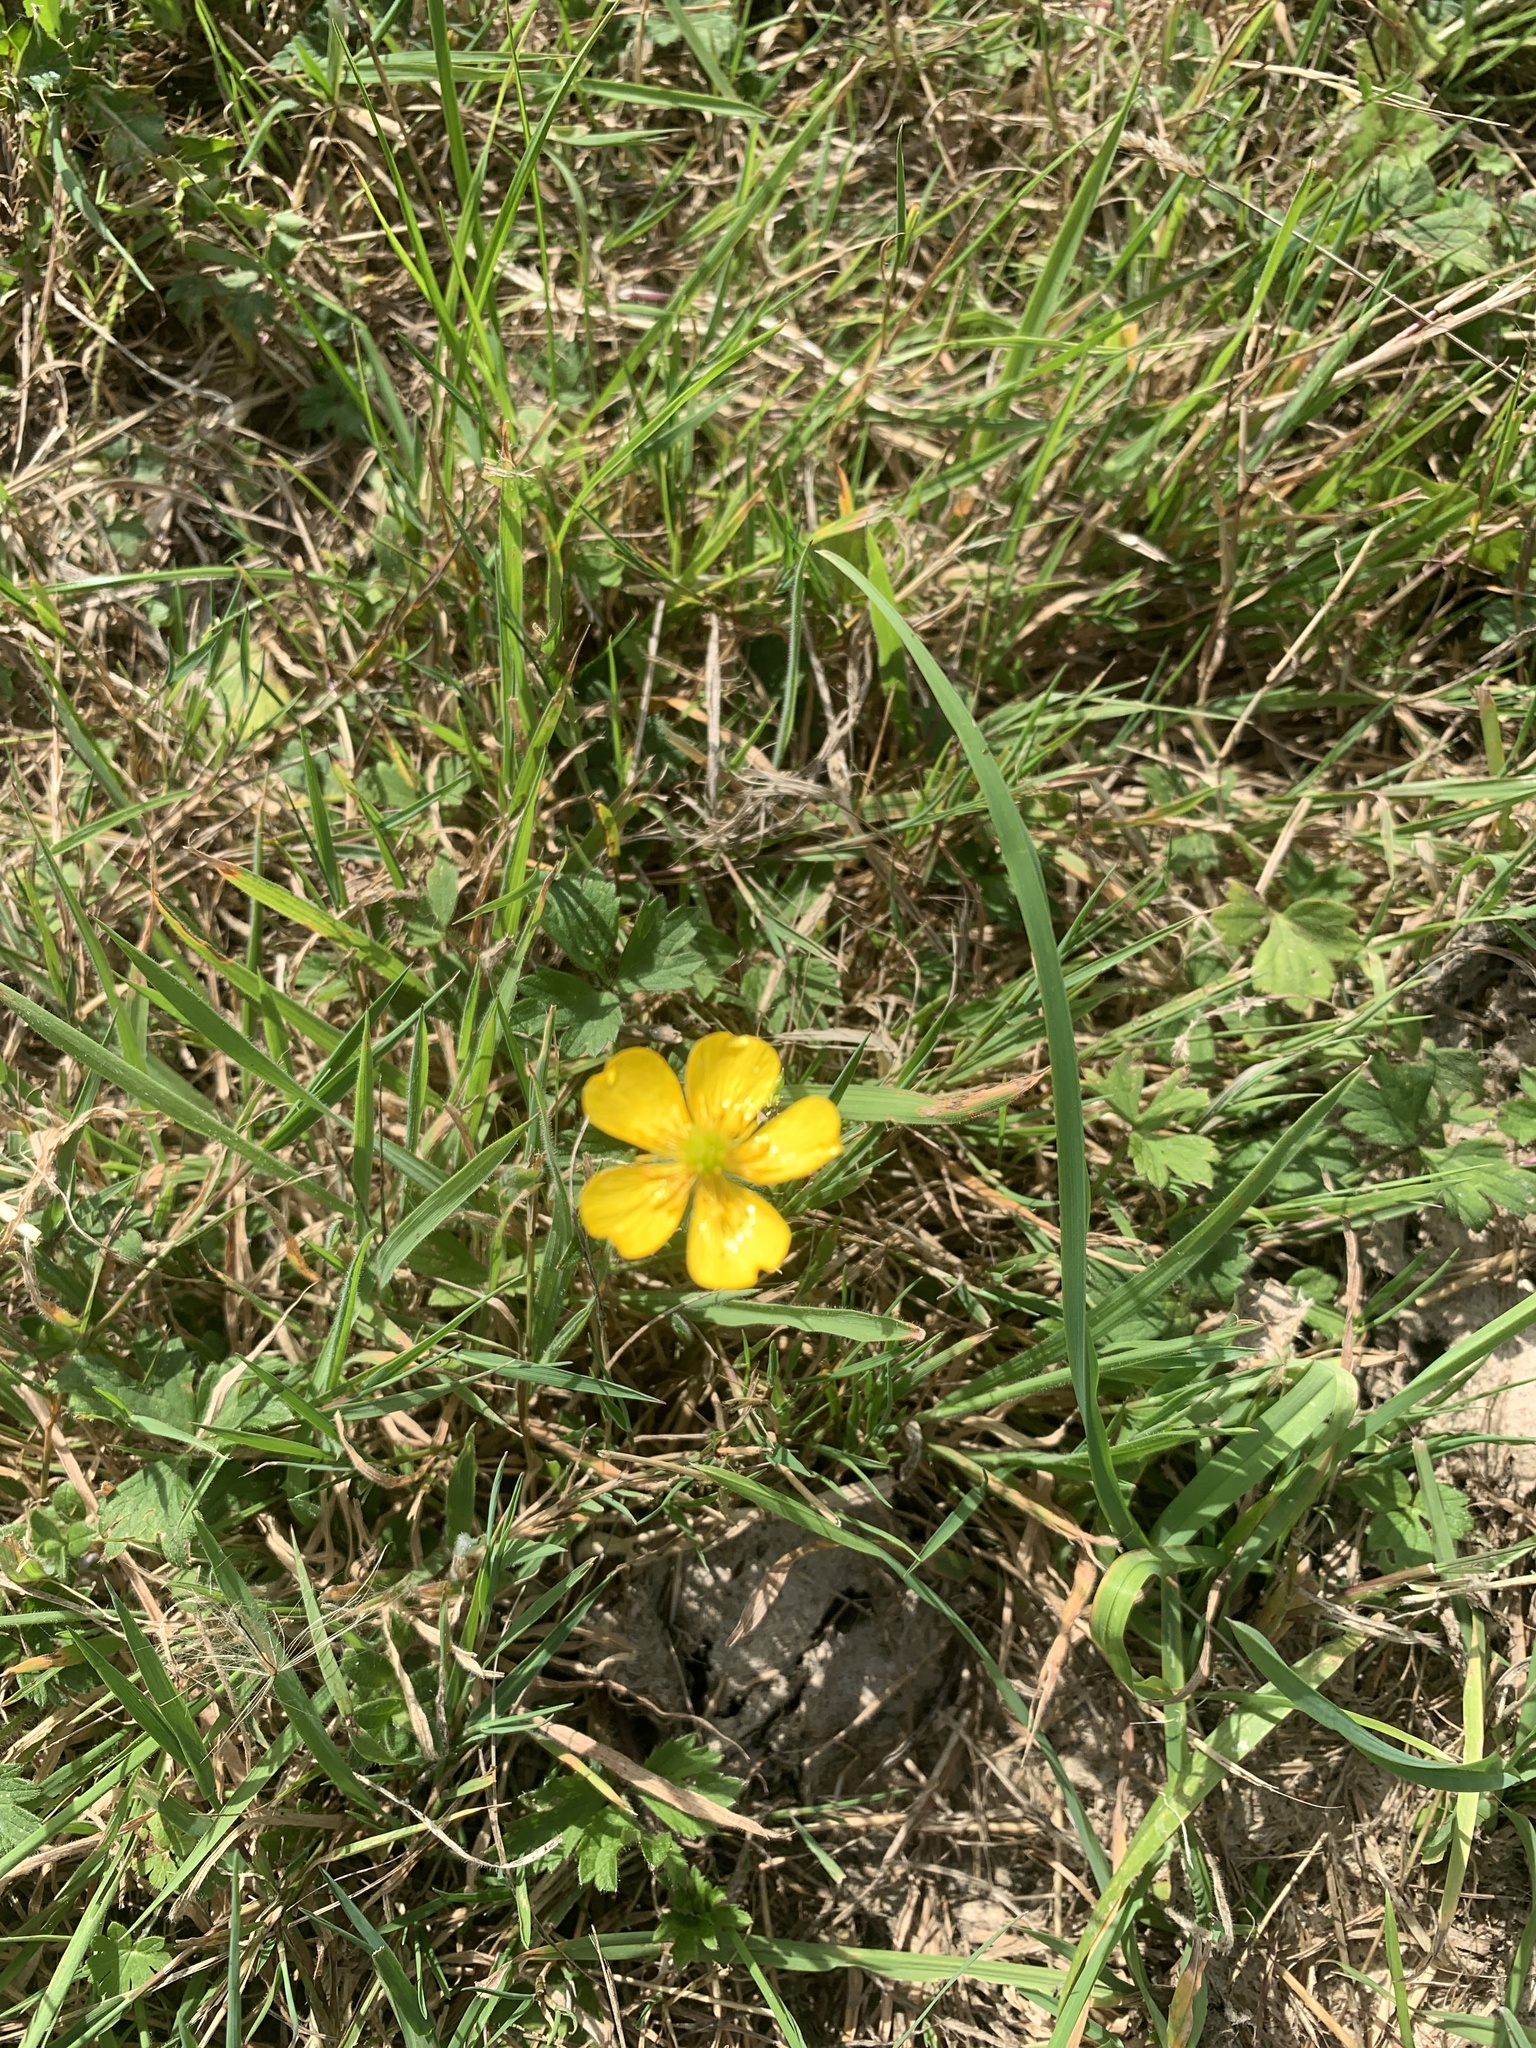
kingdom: Plantae
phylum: Tracheophyta
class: Magnoliopsida
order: Ranunculales
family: Ranunculaceae
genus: Ranunculus
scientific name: Ranunculus repens
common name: Creeping buttercup
